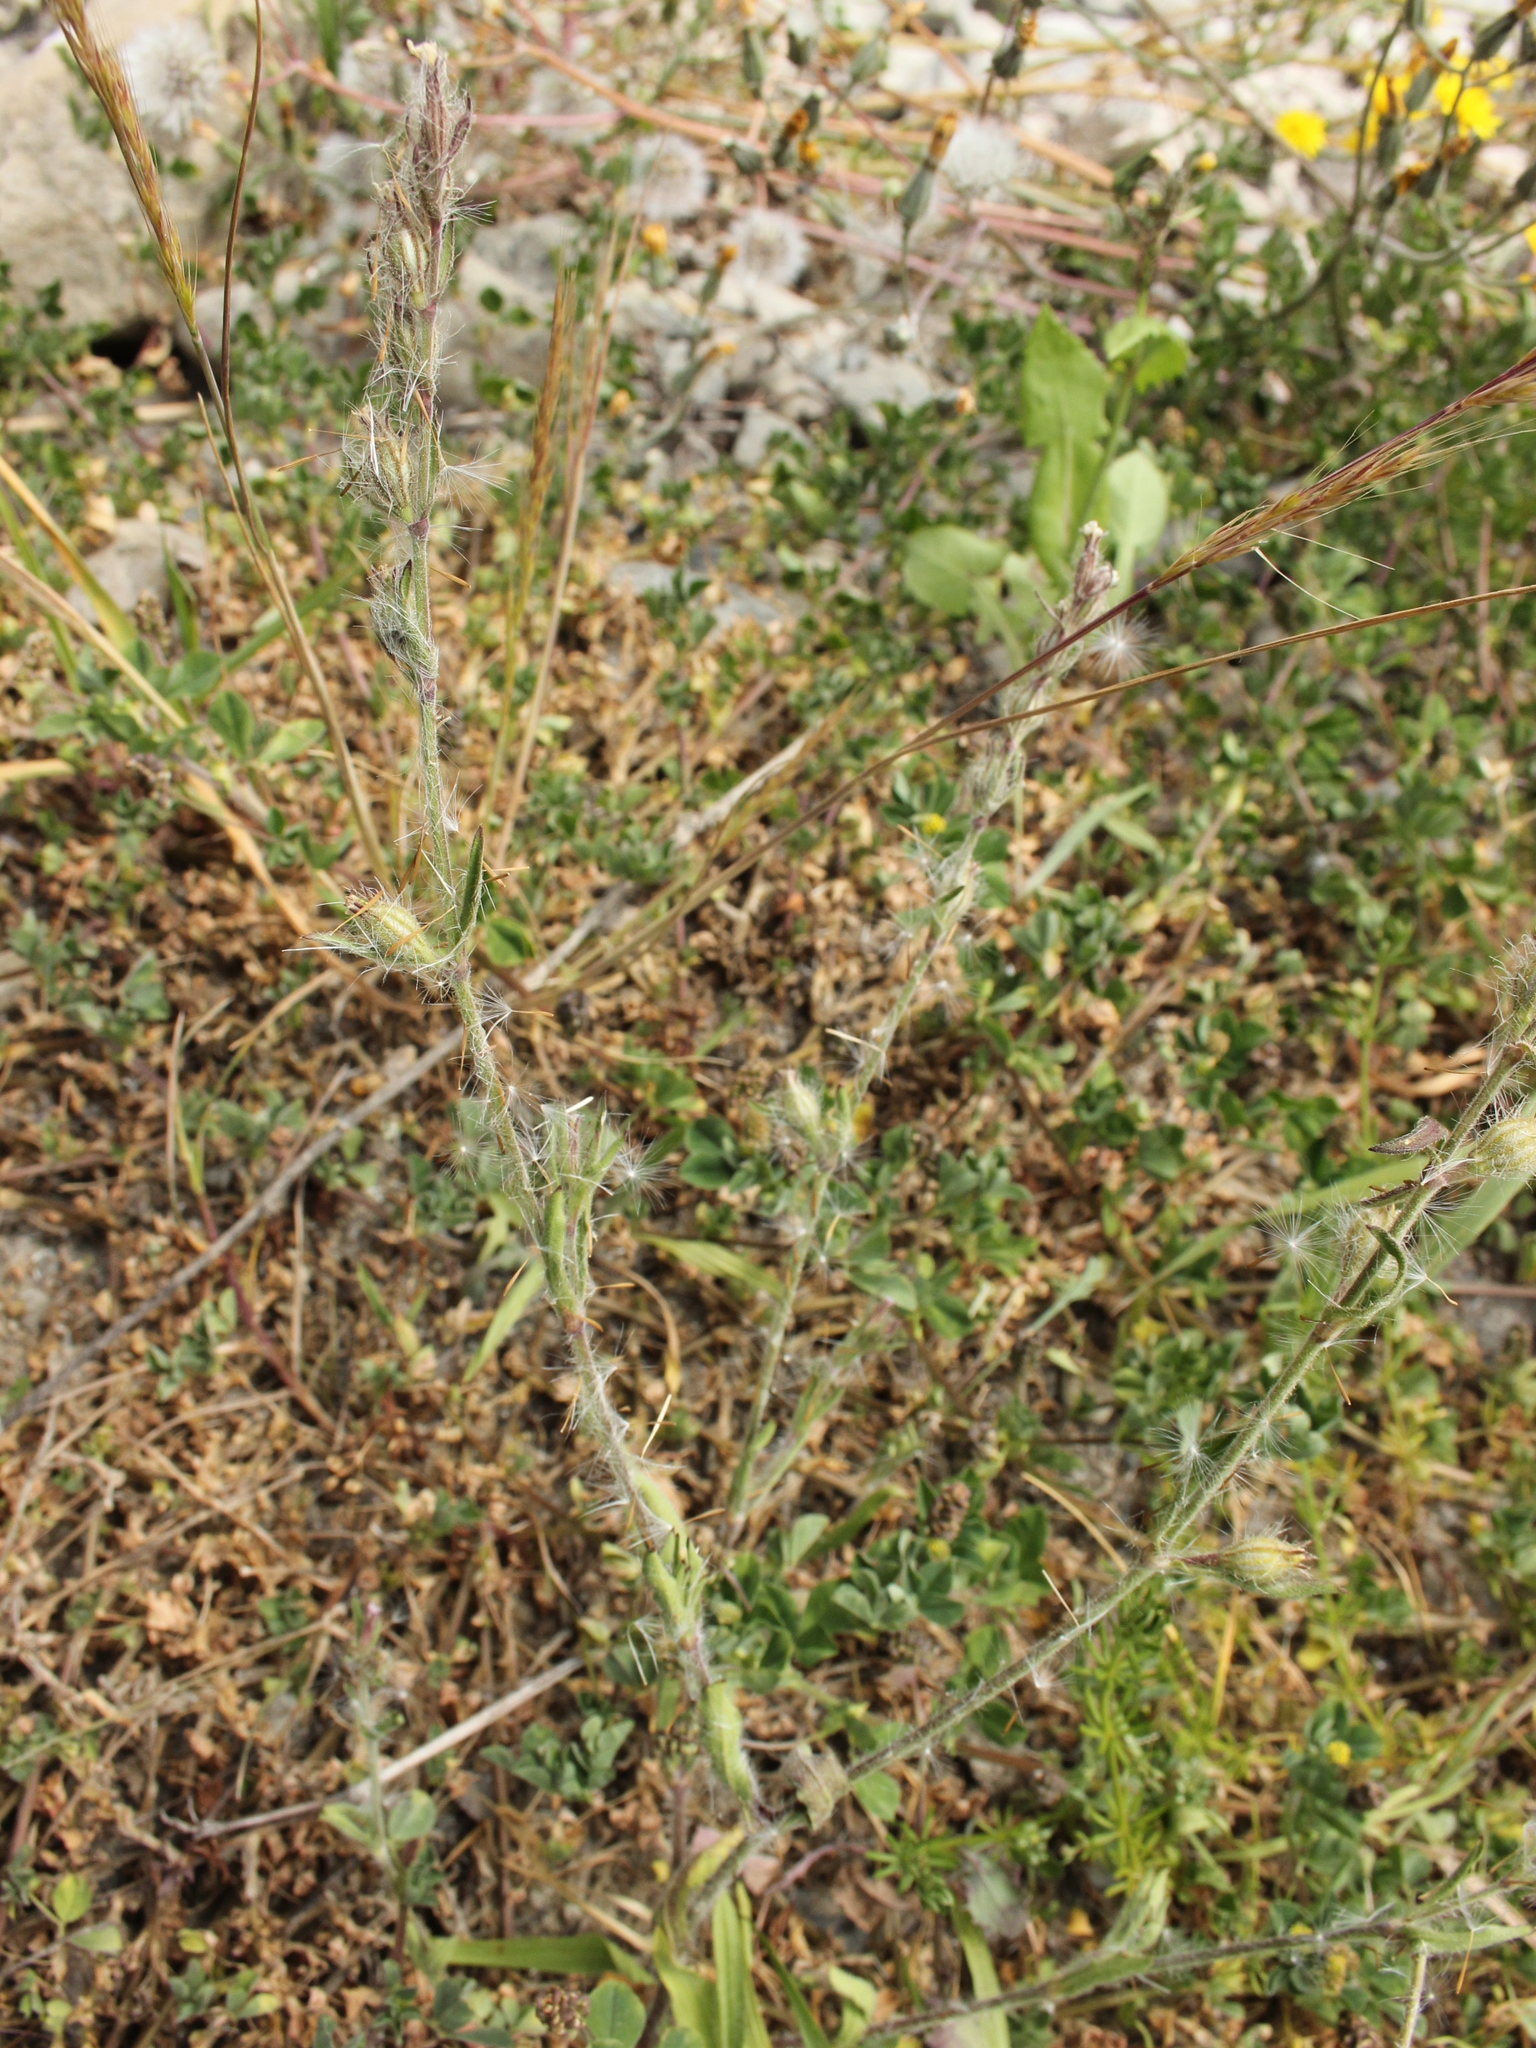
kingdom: Plantae
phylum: Tracheophyta
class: Magnoliopsida
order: Caryophyllales
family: Caryophyllaceae
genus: Silene
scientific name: Silene gallica
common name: Small-flowered catchfly
